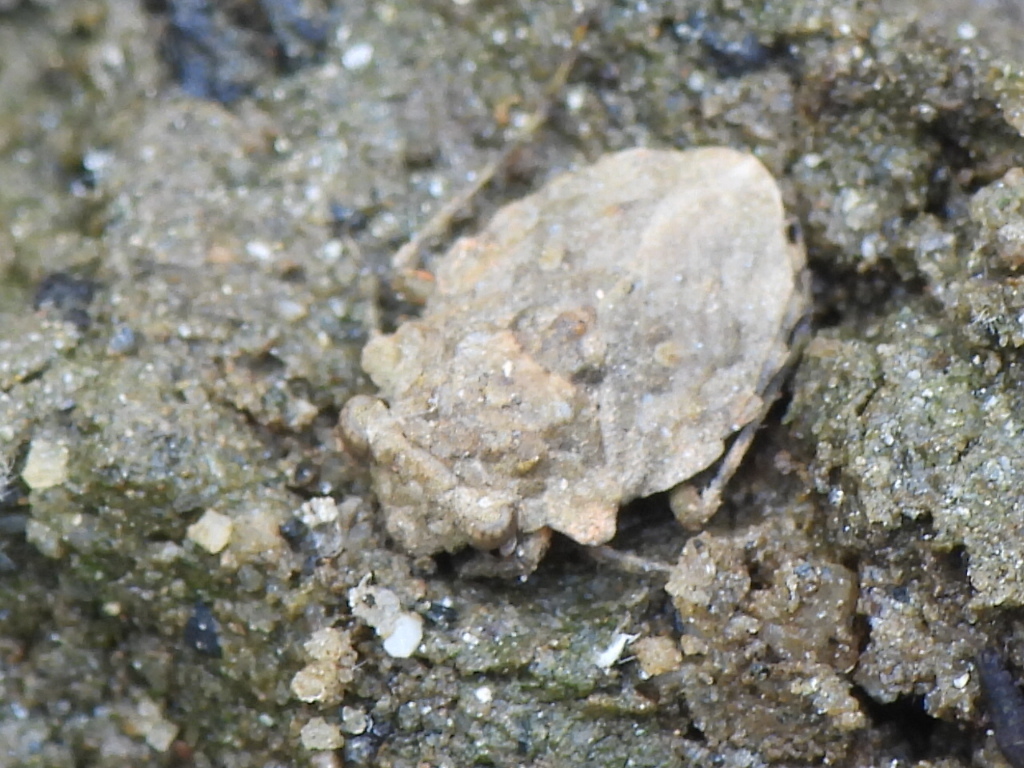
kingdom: Animalia
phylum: Arthropoda
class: Insecta
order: Hemiptera
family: Gelastocoridae
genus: Gelastocoris
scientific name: Gelastocoris oculatus
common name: Toad bug
